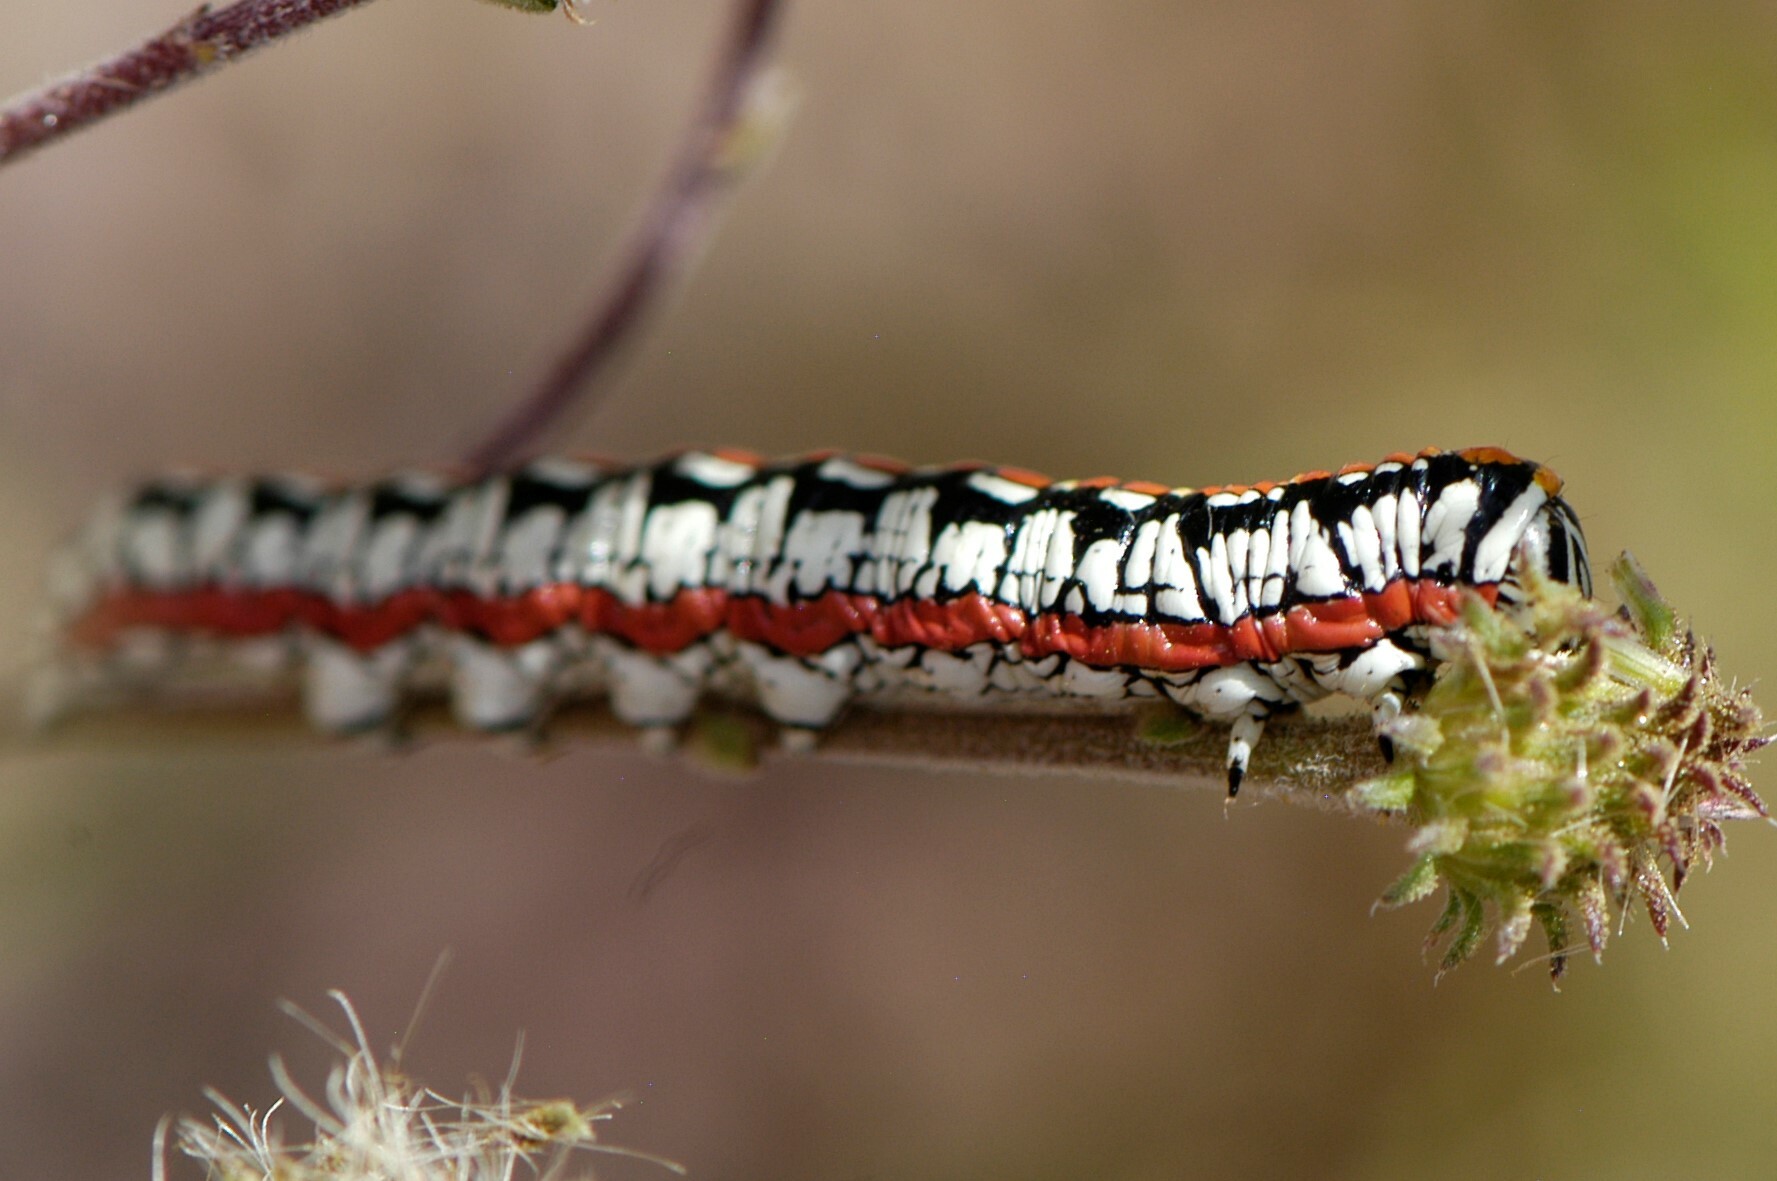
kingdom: Animalia
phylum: Arthropoda
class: Insecta
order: Lepidoptera
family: Noctuidae
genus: Cucullia
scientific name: Cucullia dorsalis
